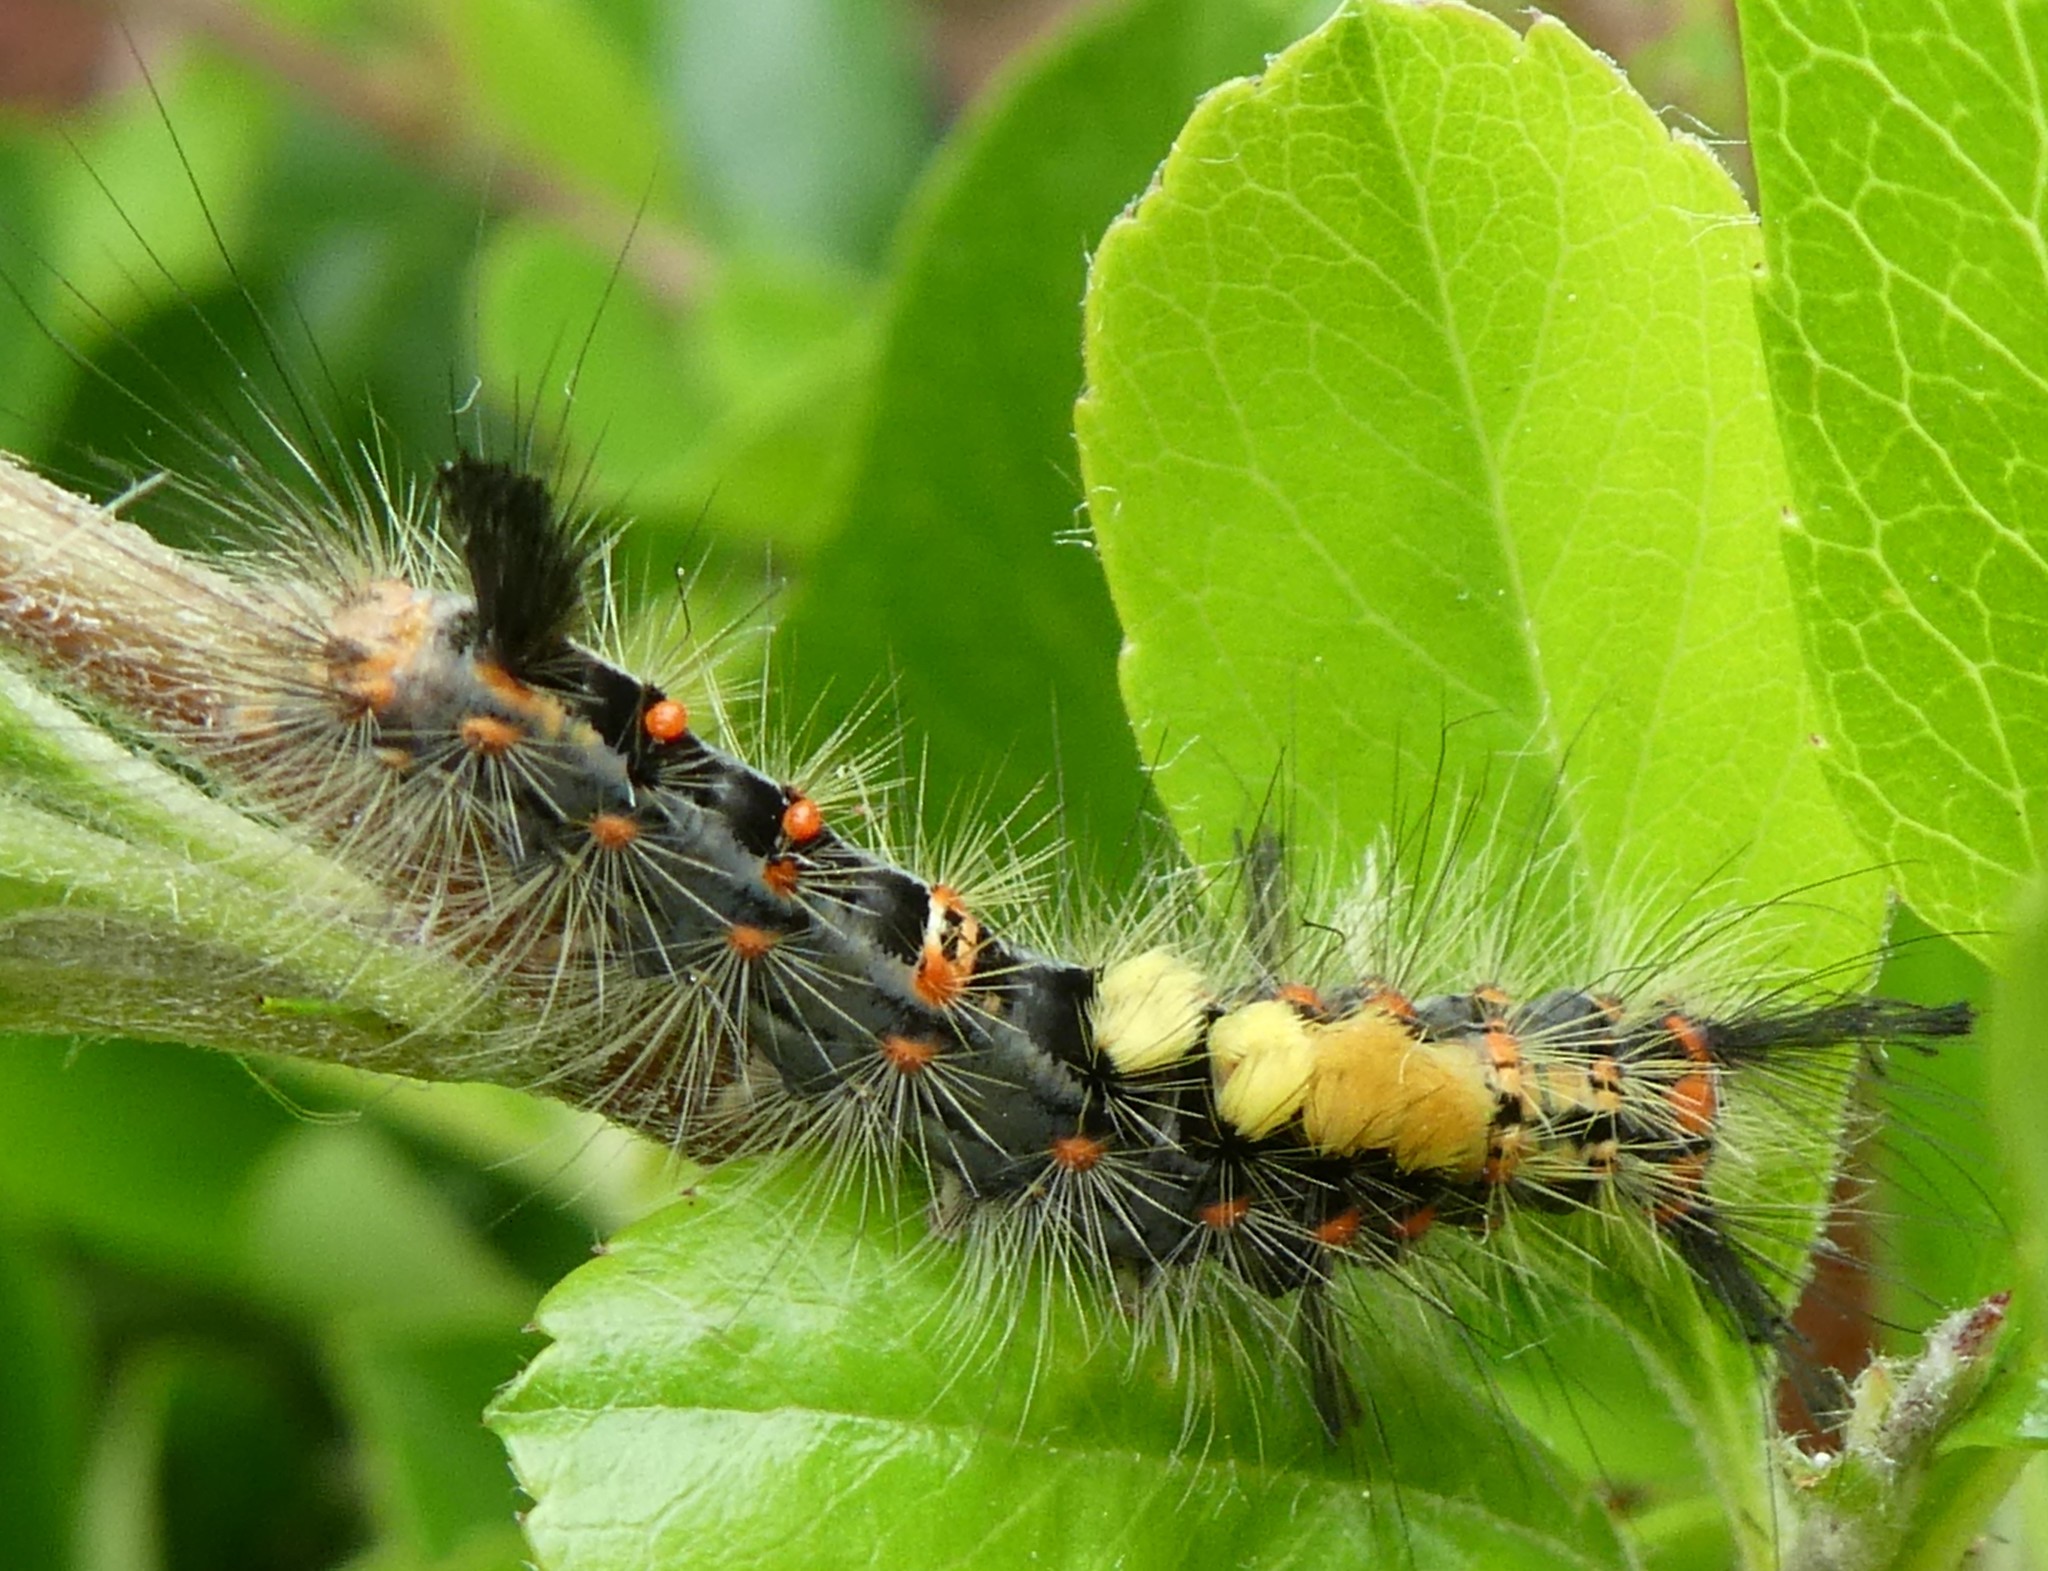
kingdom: Animalia
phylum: Arthropoda
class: Insecta
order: Lepidoptera
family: Erebidae
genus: Orgyia
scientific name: Orgyia antiqua
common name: Vapourer
